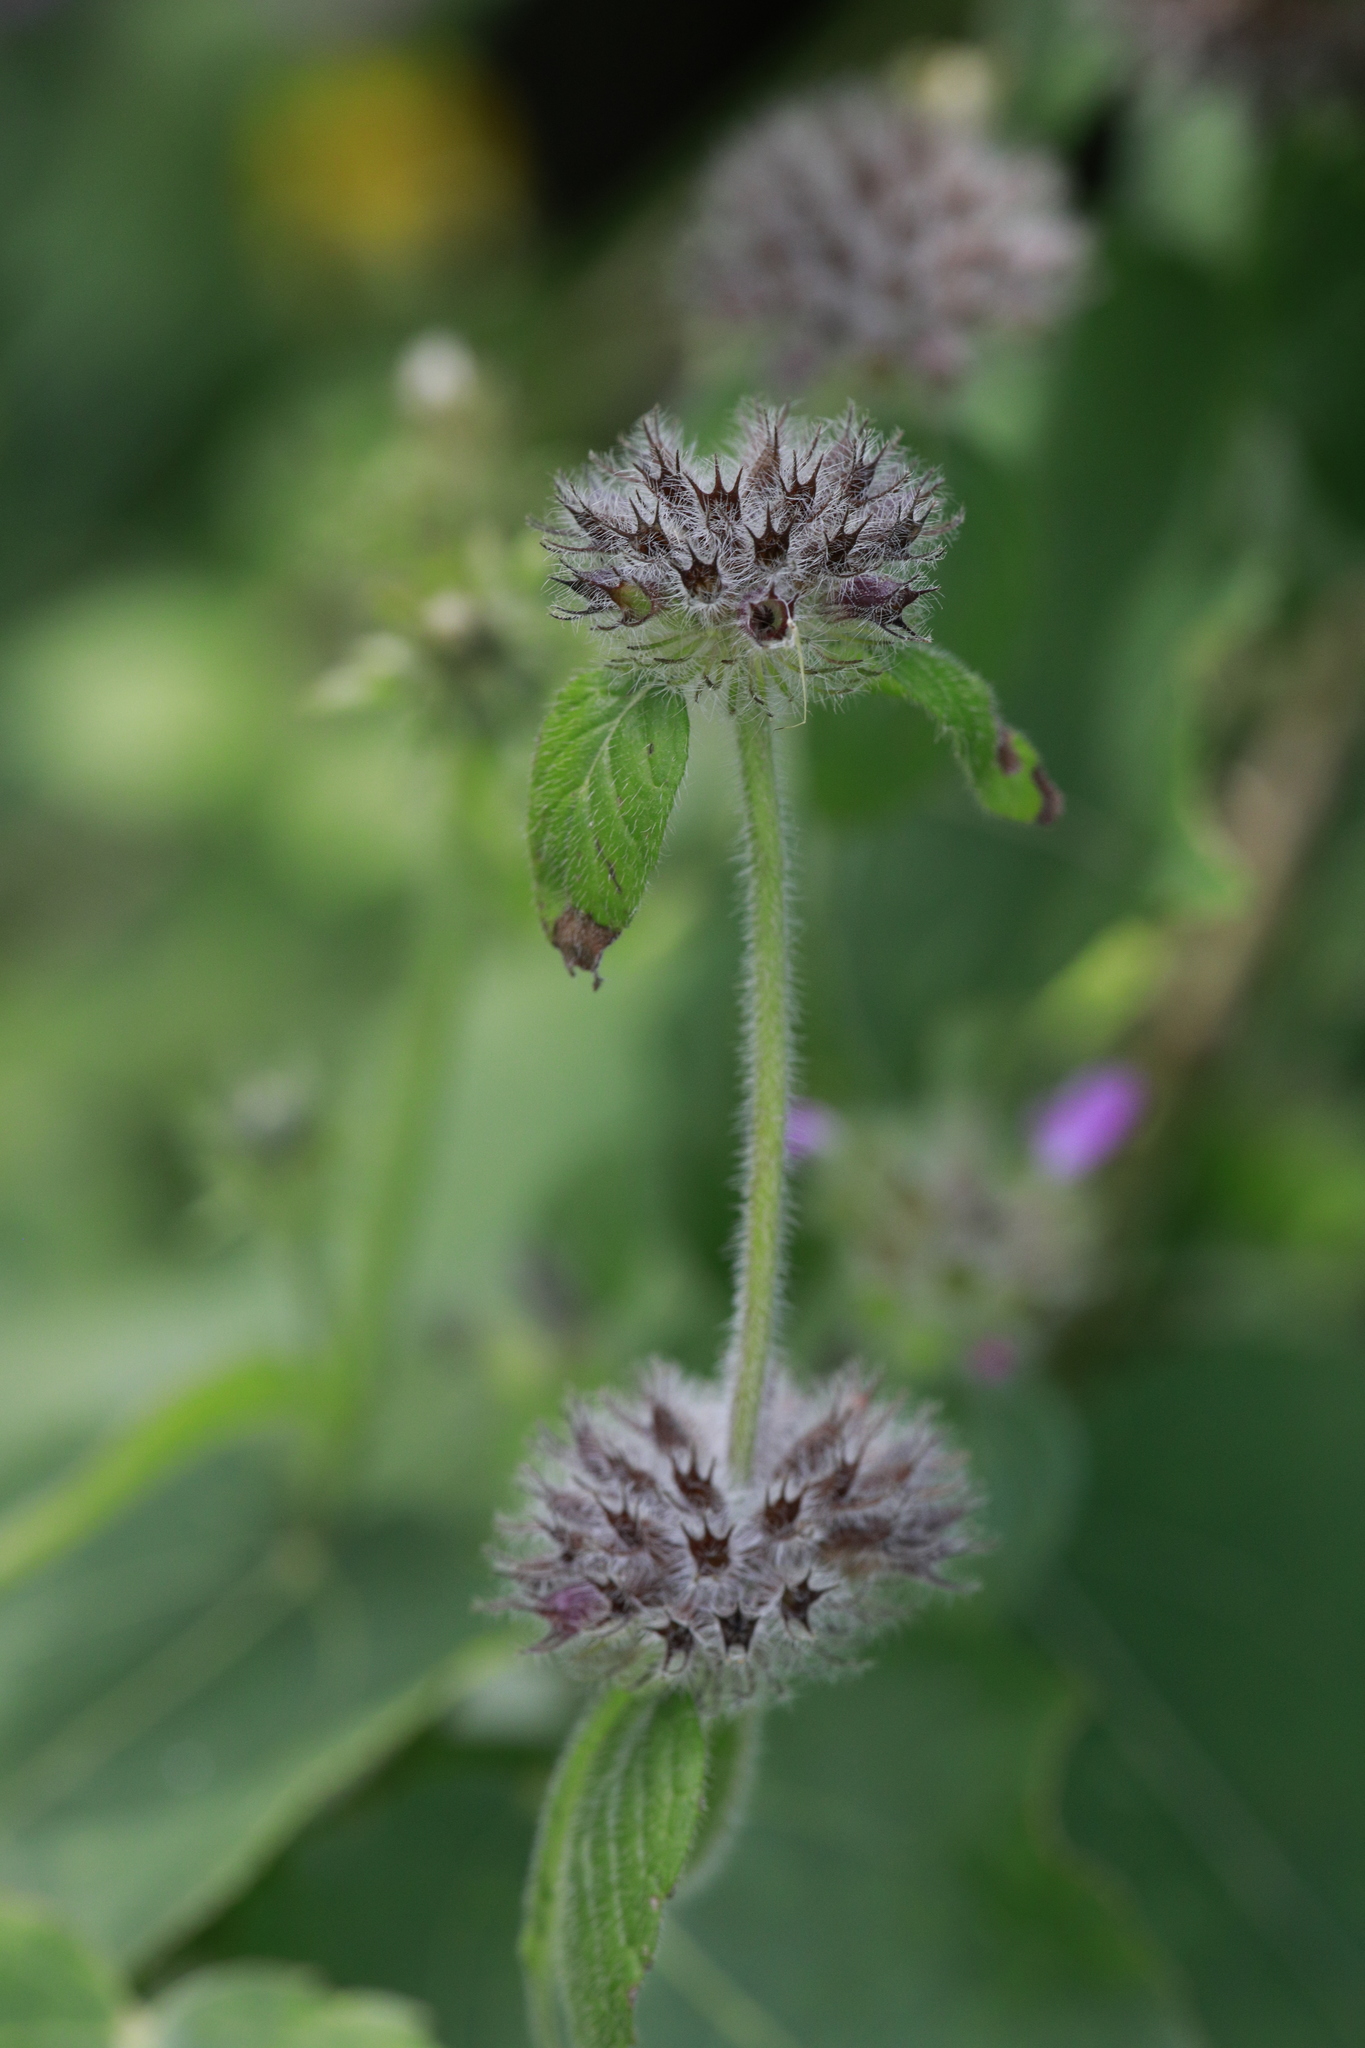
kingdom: Plantae
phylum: Tracheophyta
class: Magnoliopsida
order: Lamiales
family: Lamiaceae
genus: Clinopodium
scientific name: Clinopodium vulgare
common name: Wild basil
